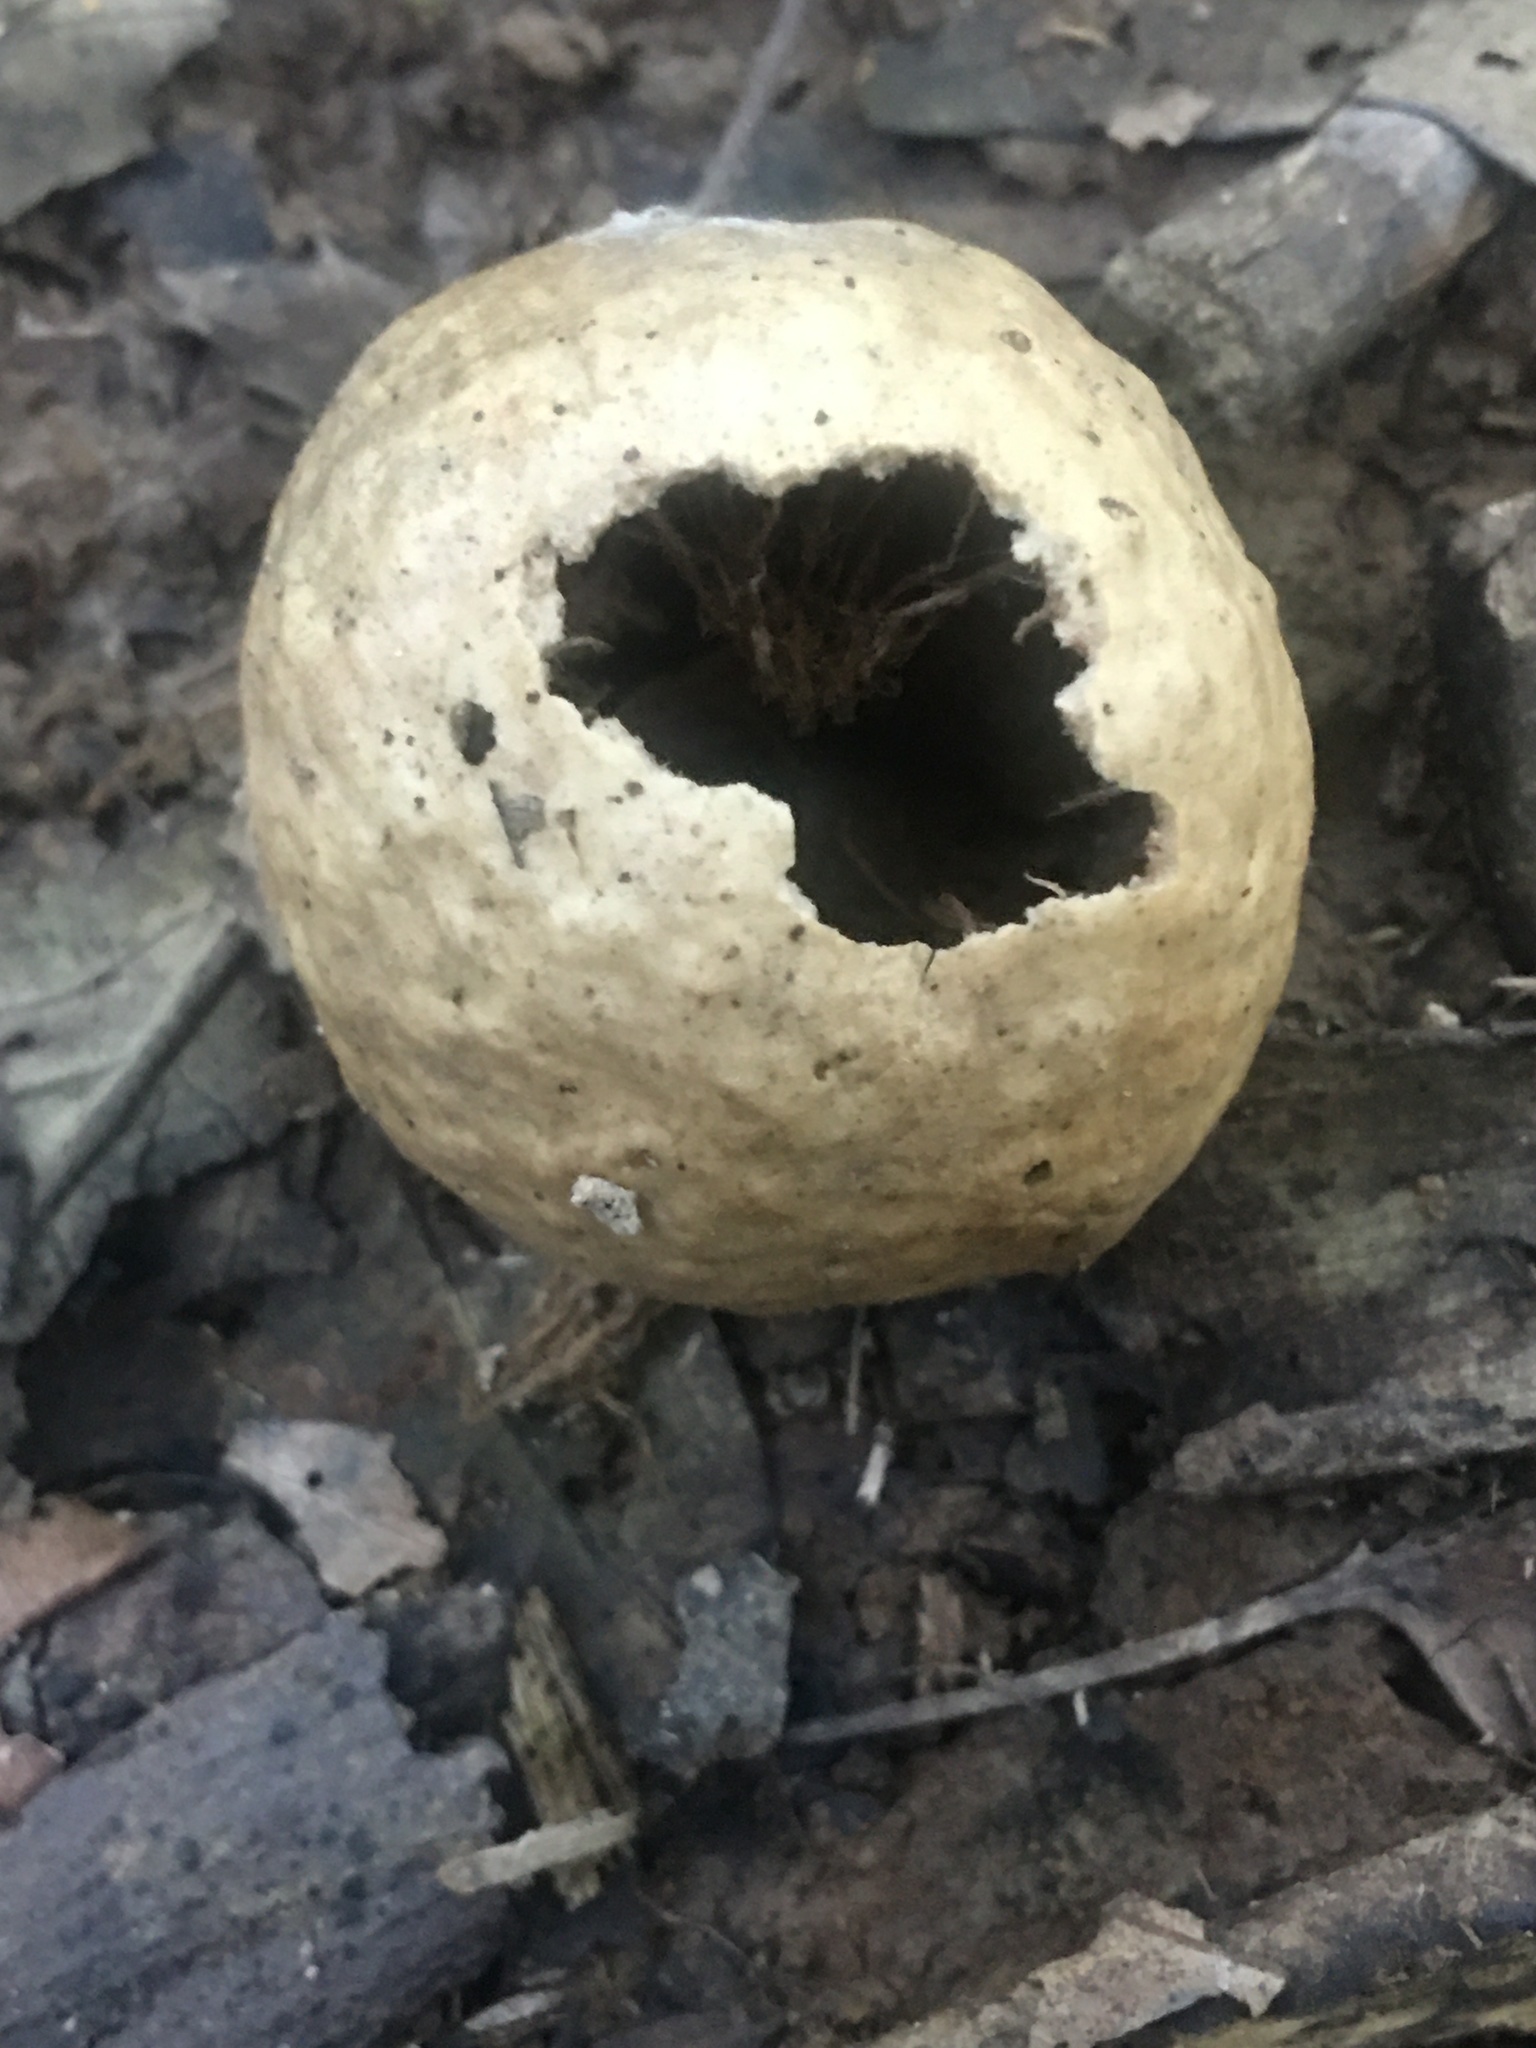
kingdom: Animalia
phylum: Arthropoda
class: Insecta
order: Hymenoptera
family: Cynipidae
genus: Amphibolips
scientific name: Amphibolips
